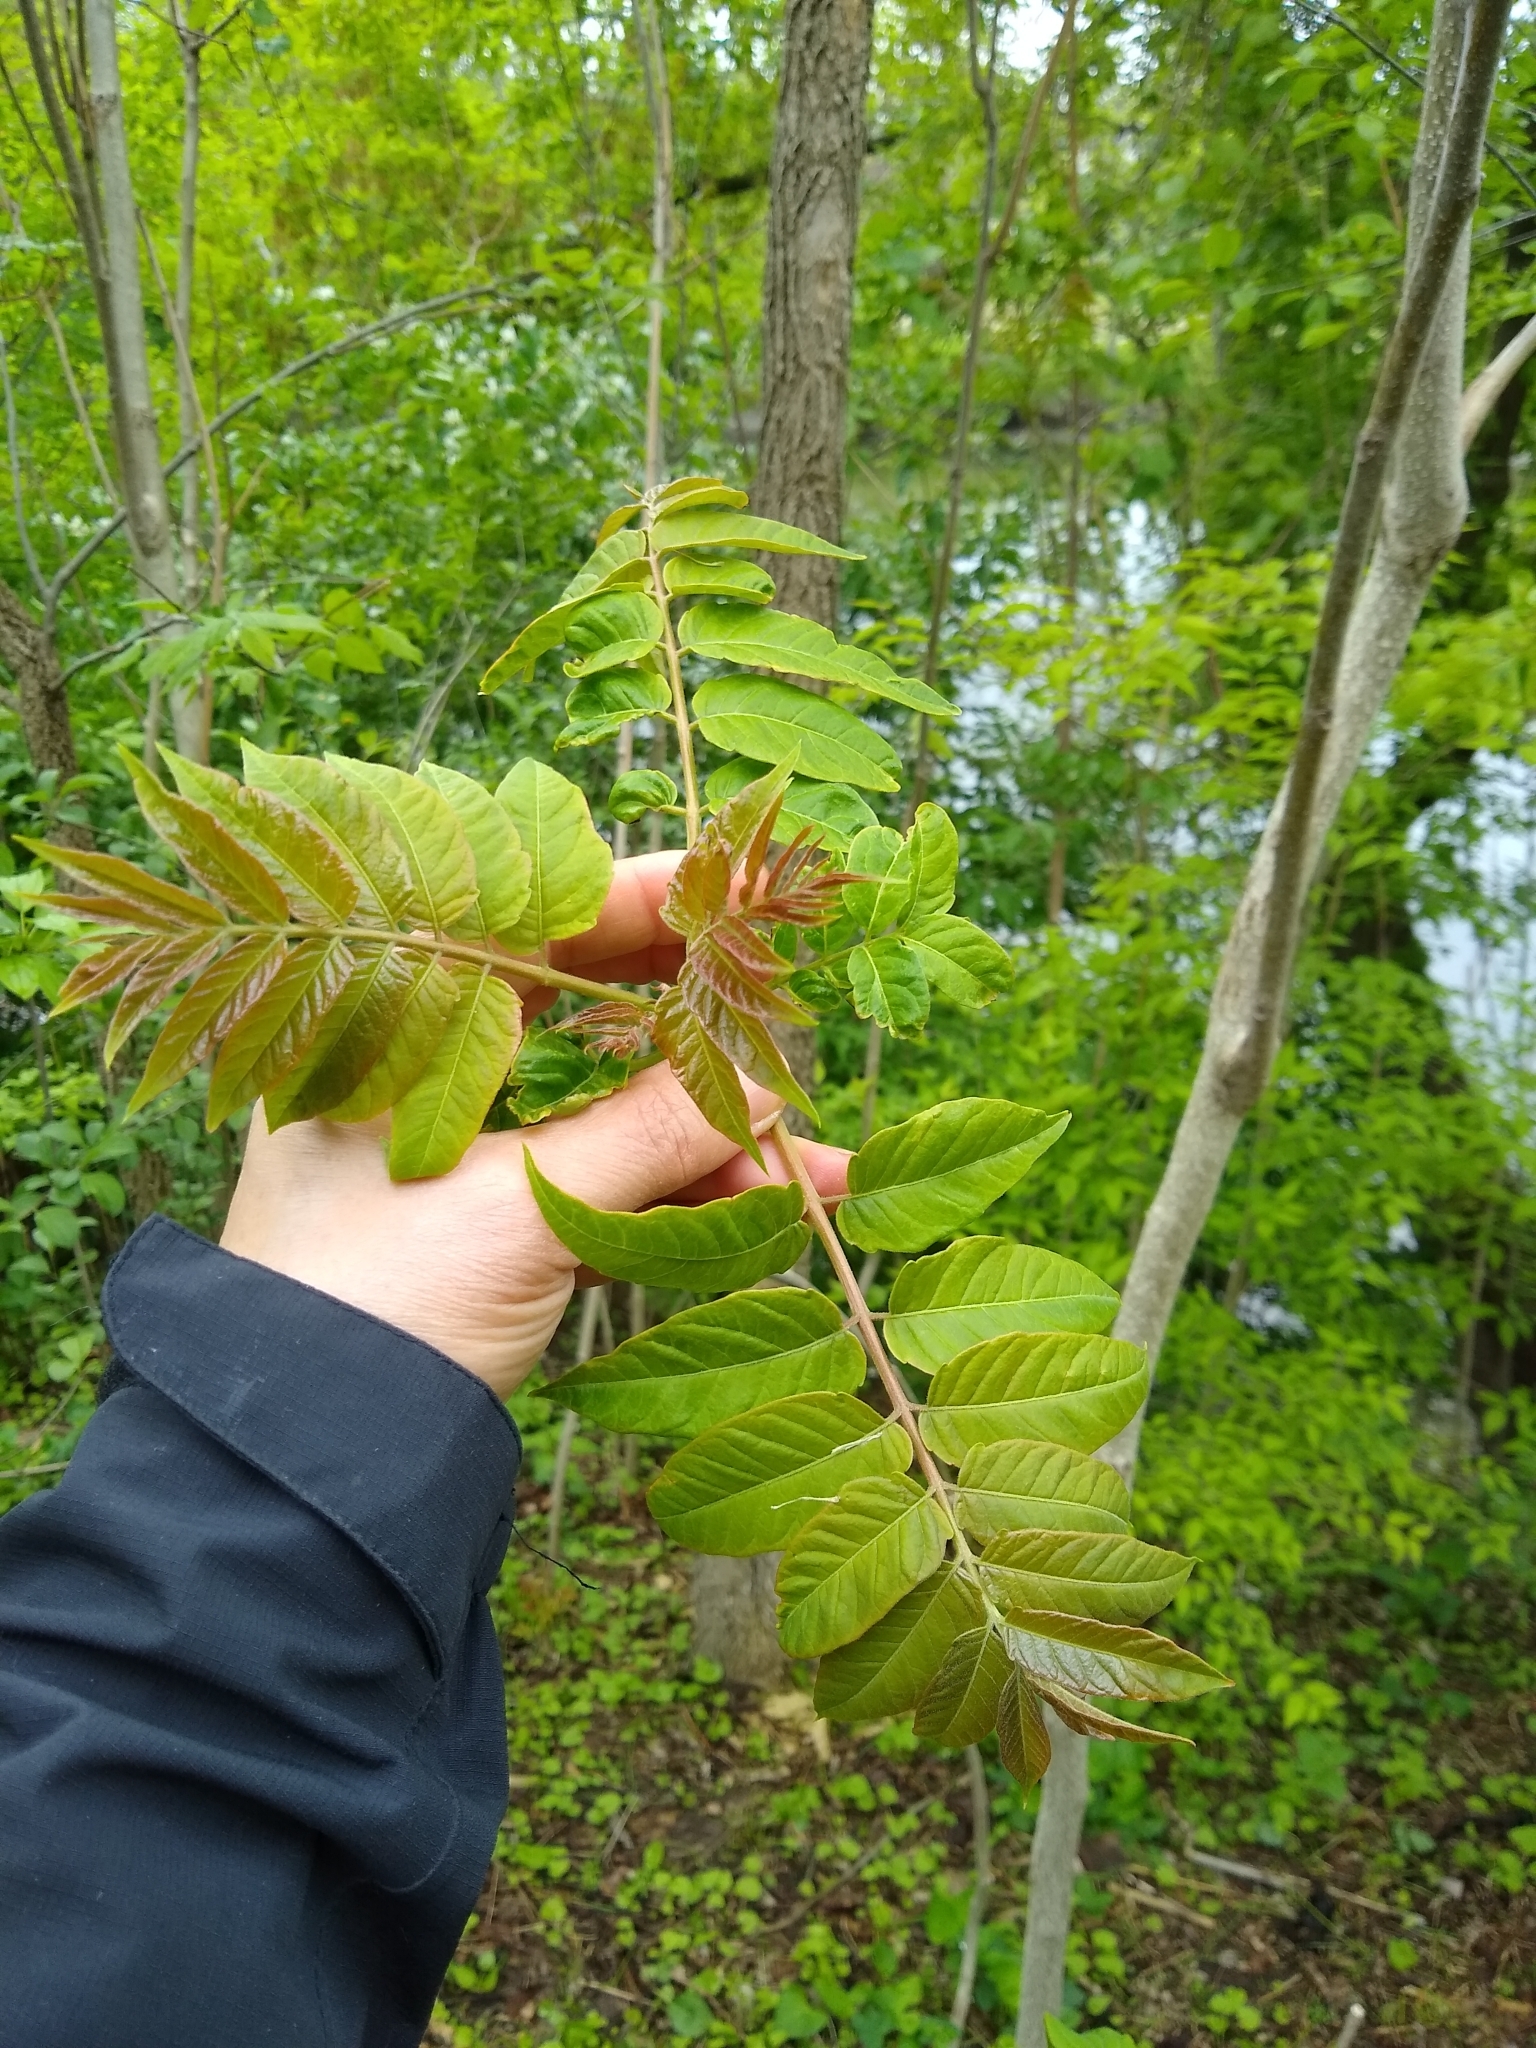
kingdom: Plantae
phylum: Tracheophyta
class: Magnoliopsida
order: Sapindales
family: Simaroubaceae
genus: Ailanthus
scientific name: Ailanthus altissima
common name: Tree-of-heaven
